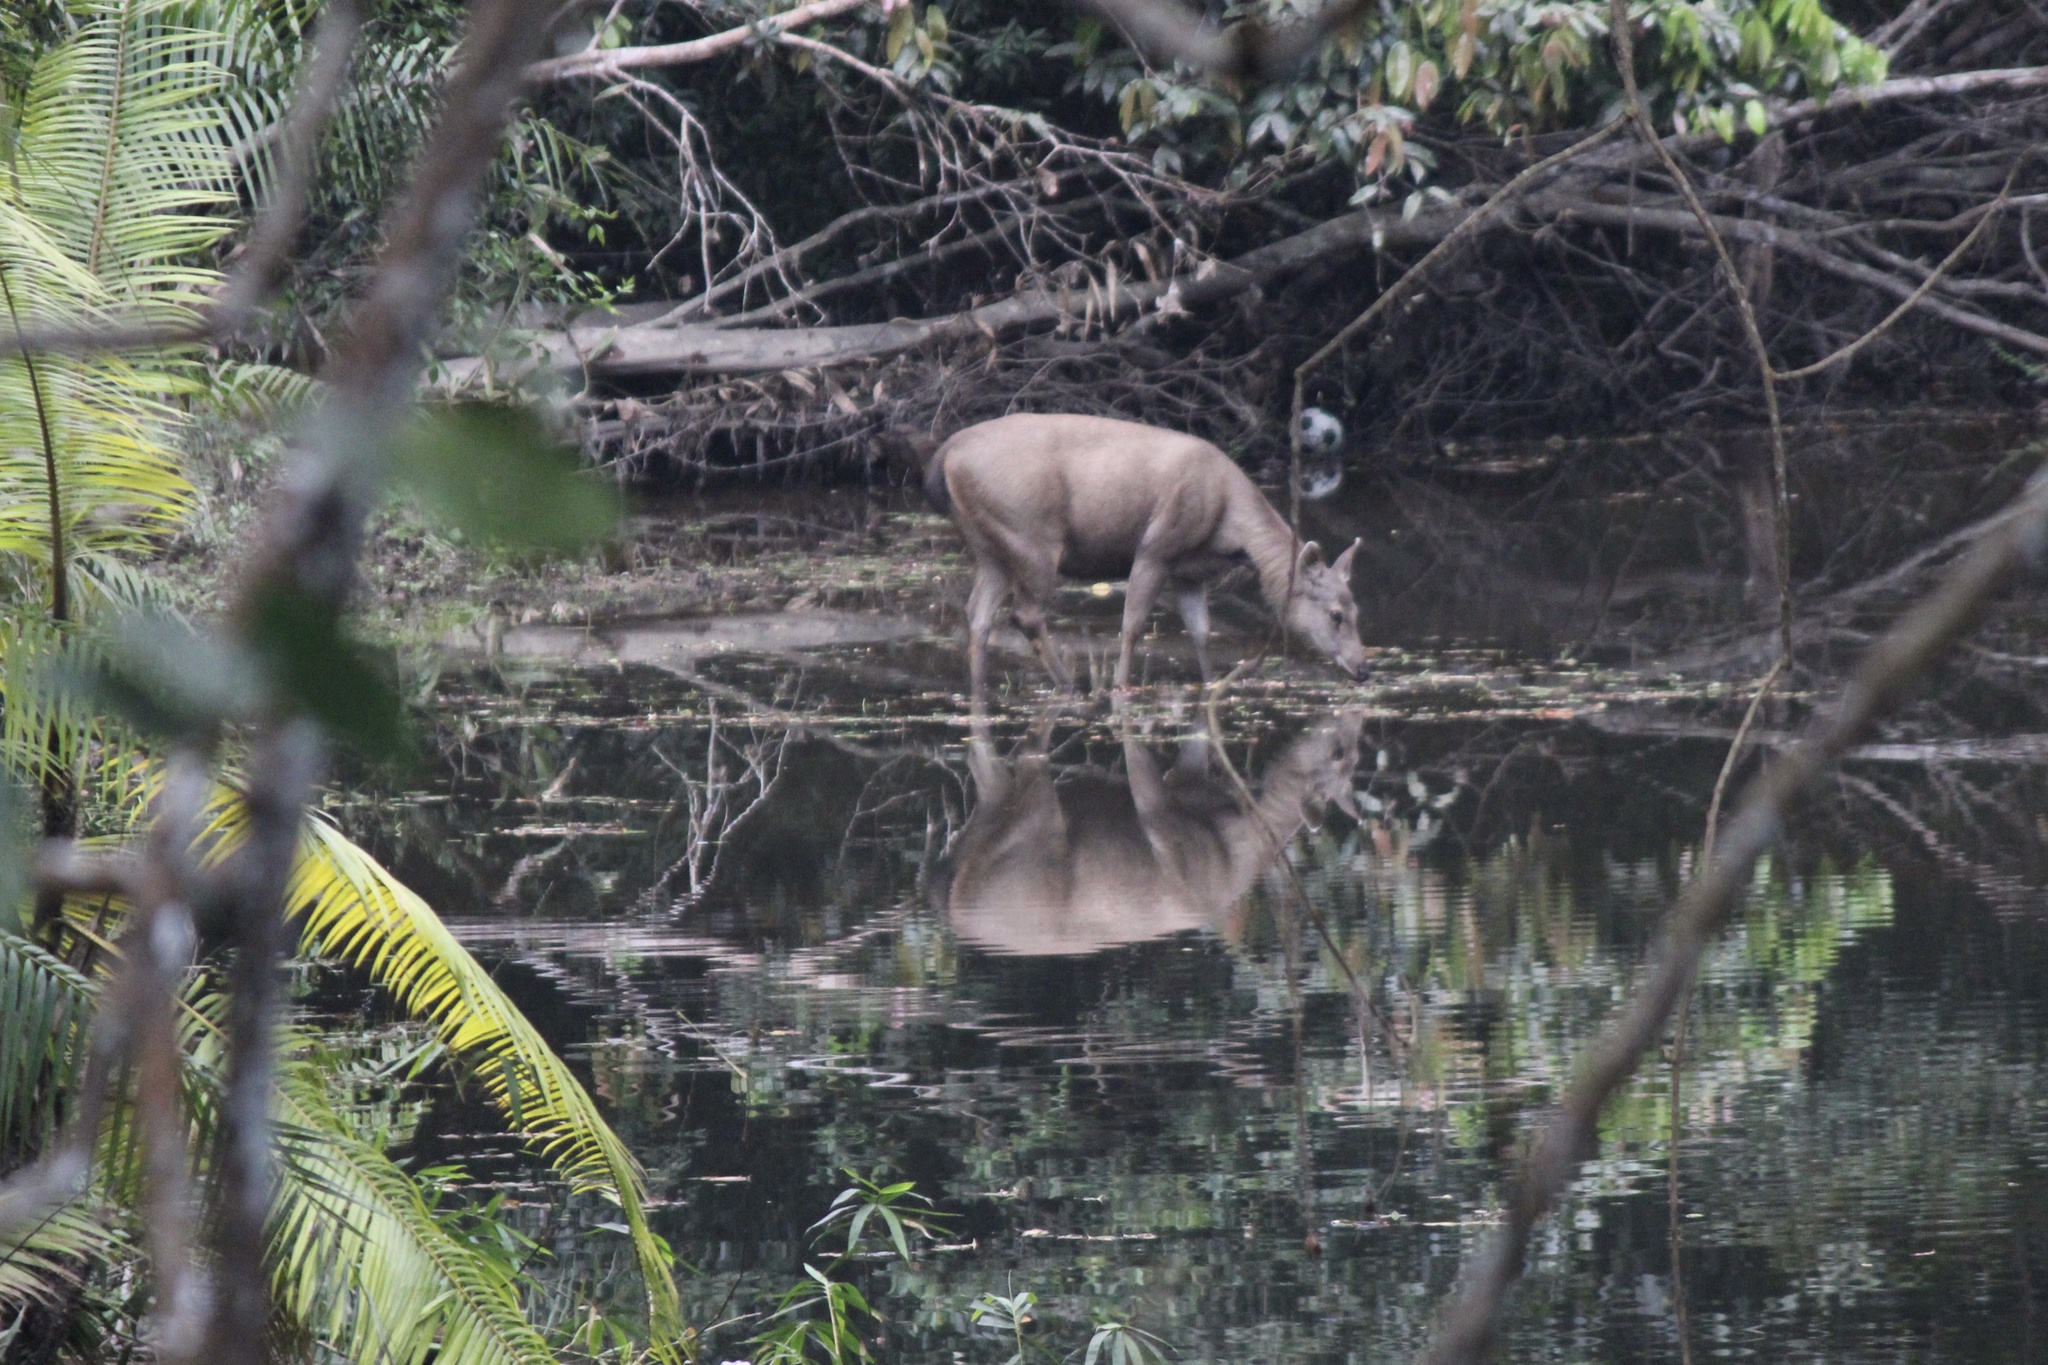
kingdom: Animalia
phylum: Chordata
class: Mammalia
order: Artiodactyla
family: Cervidae
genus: Rusa
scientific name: Rusa unicolor
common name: Sambar
